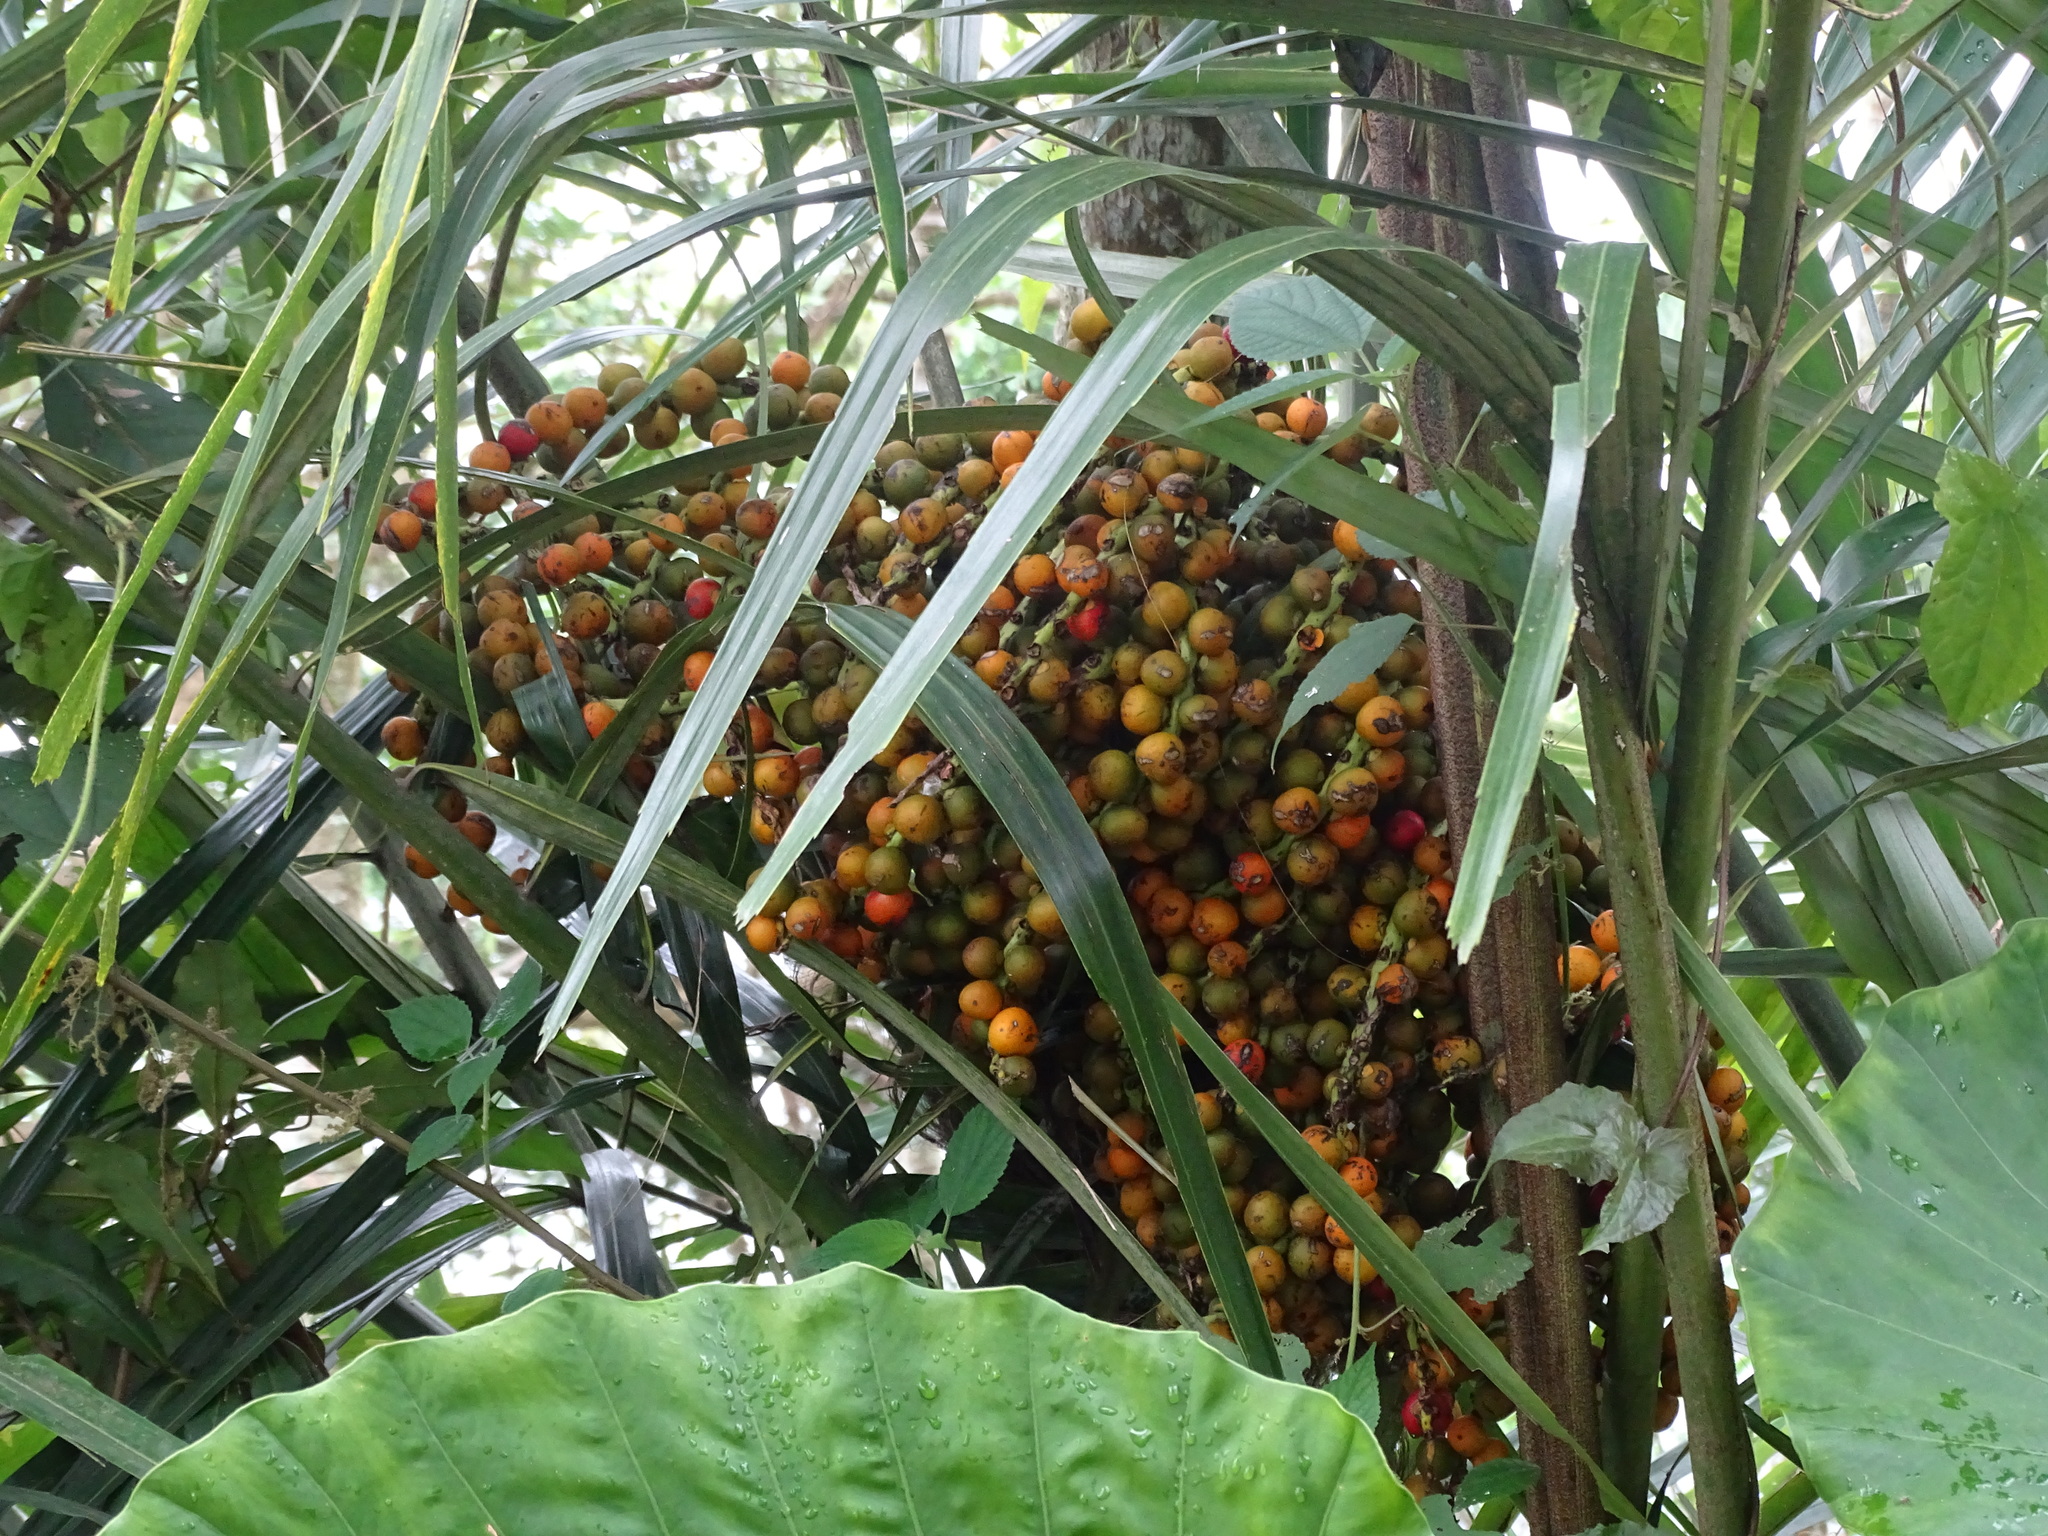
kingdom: Plantae
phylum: Tracheophyta
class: Liliopsida
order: Arecales
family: Arecaceae
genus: Arenga
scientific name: Arenga engleri
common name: Formosan sugar palm
